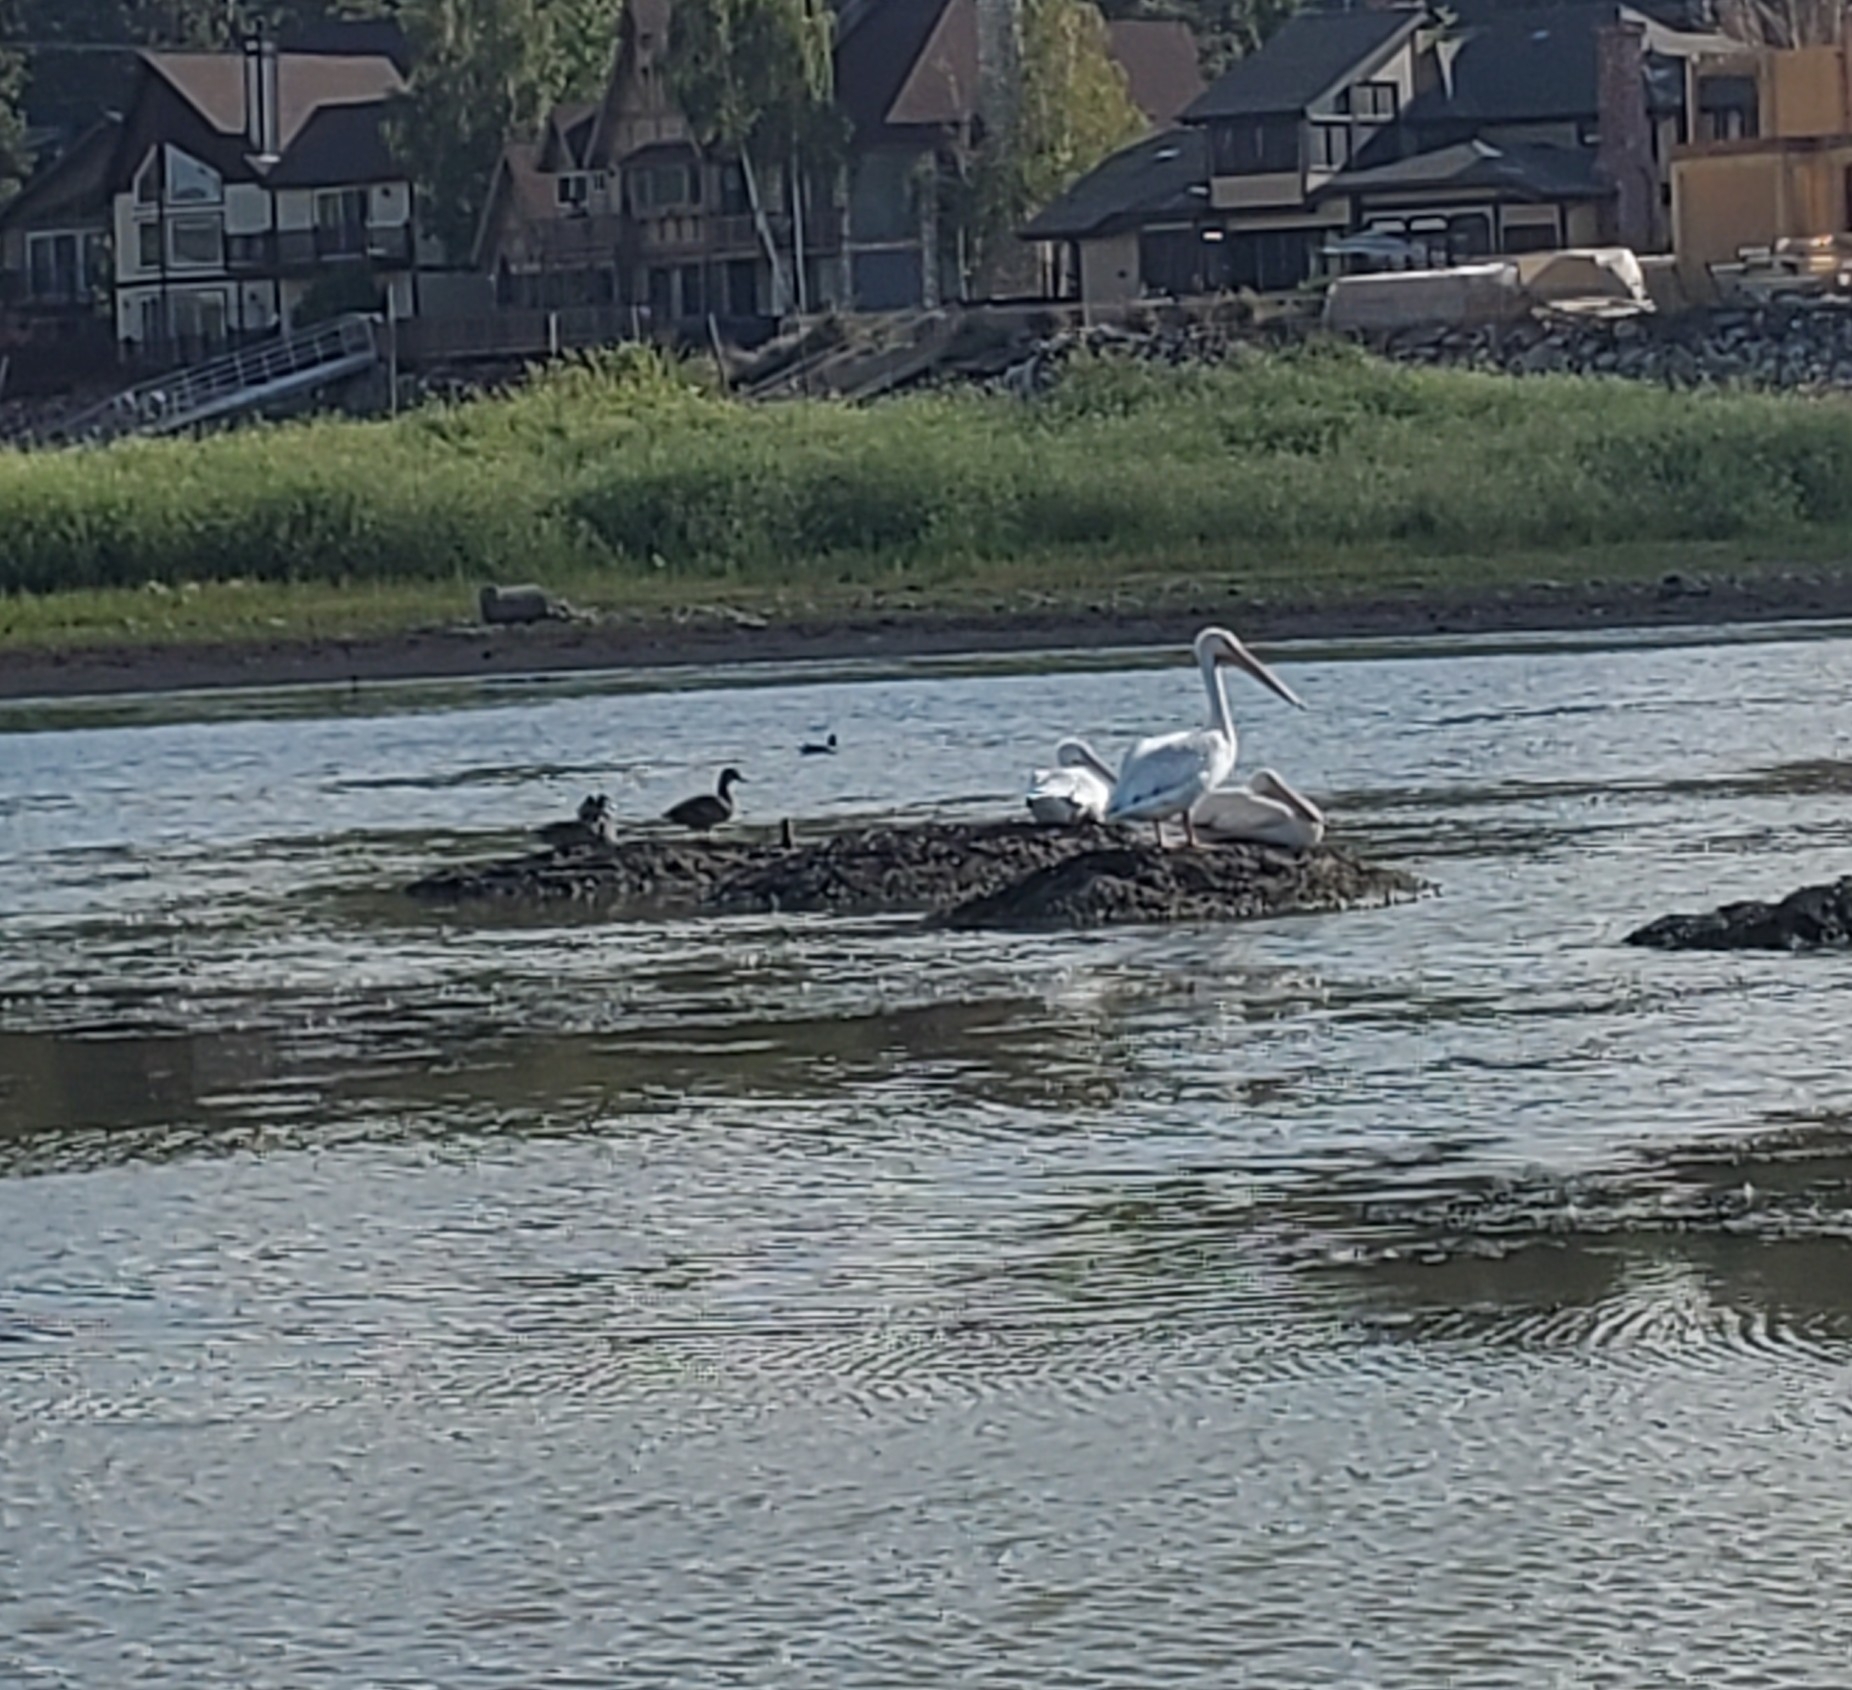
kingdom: Animalia
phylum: Chordata
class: Aves
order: Pelecaniformes
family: Pelecanidae
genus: Pelecanus
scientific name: Pelecanus erythrorhynchos
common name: American white pelican
